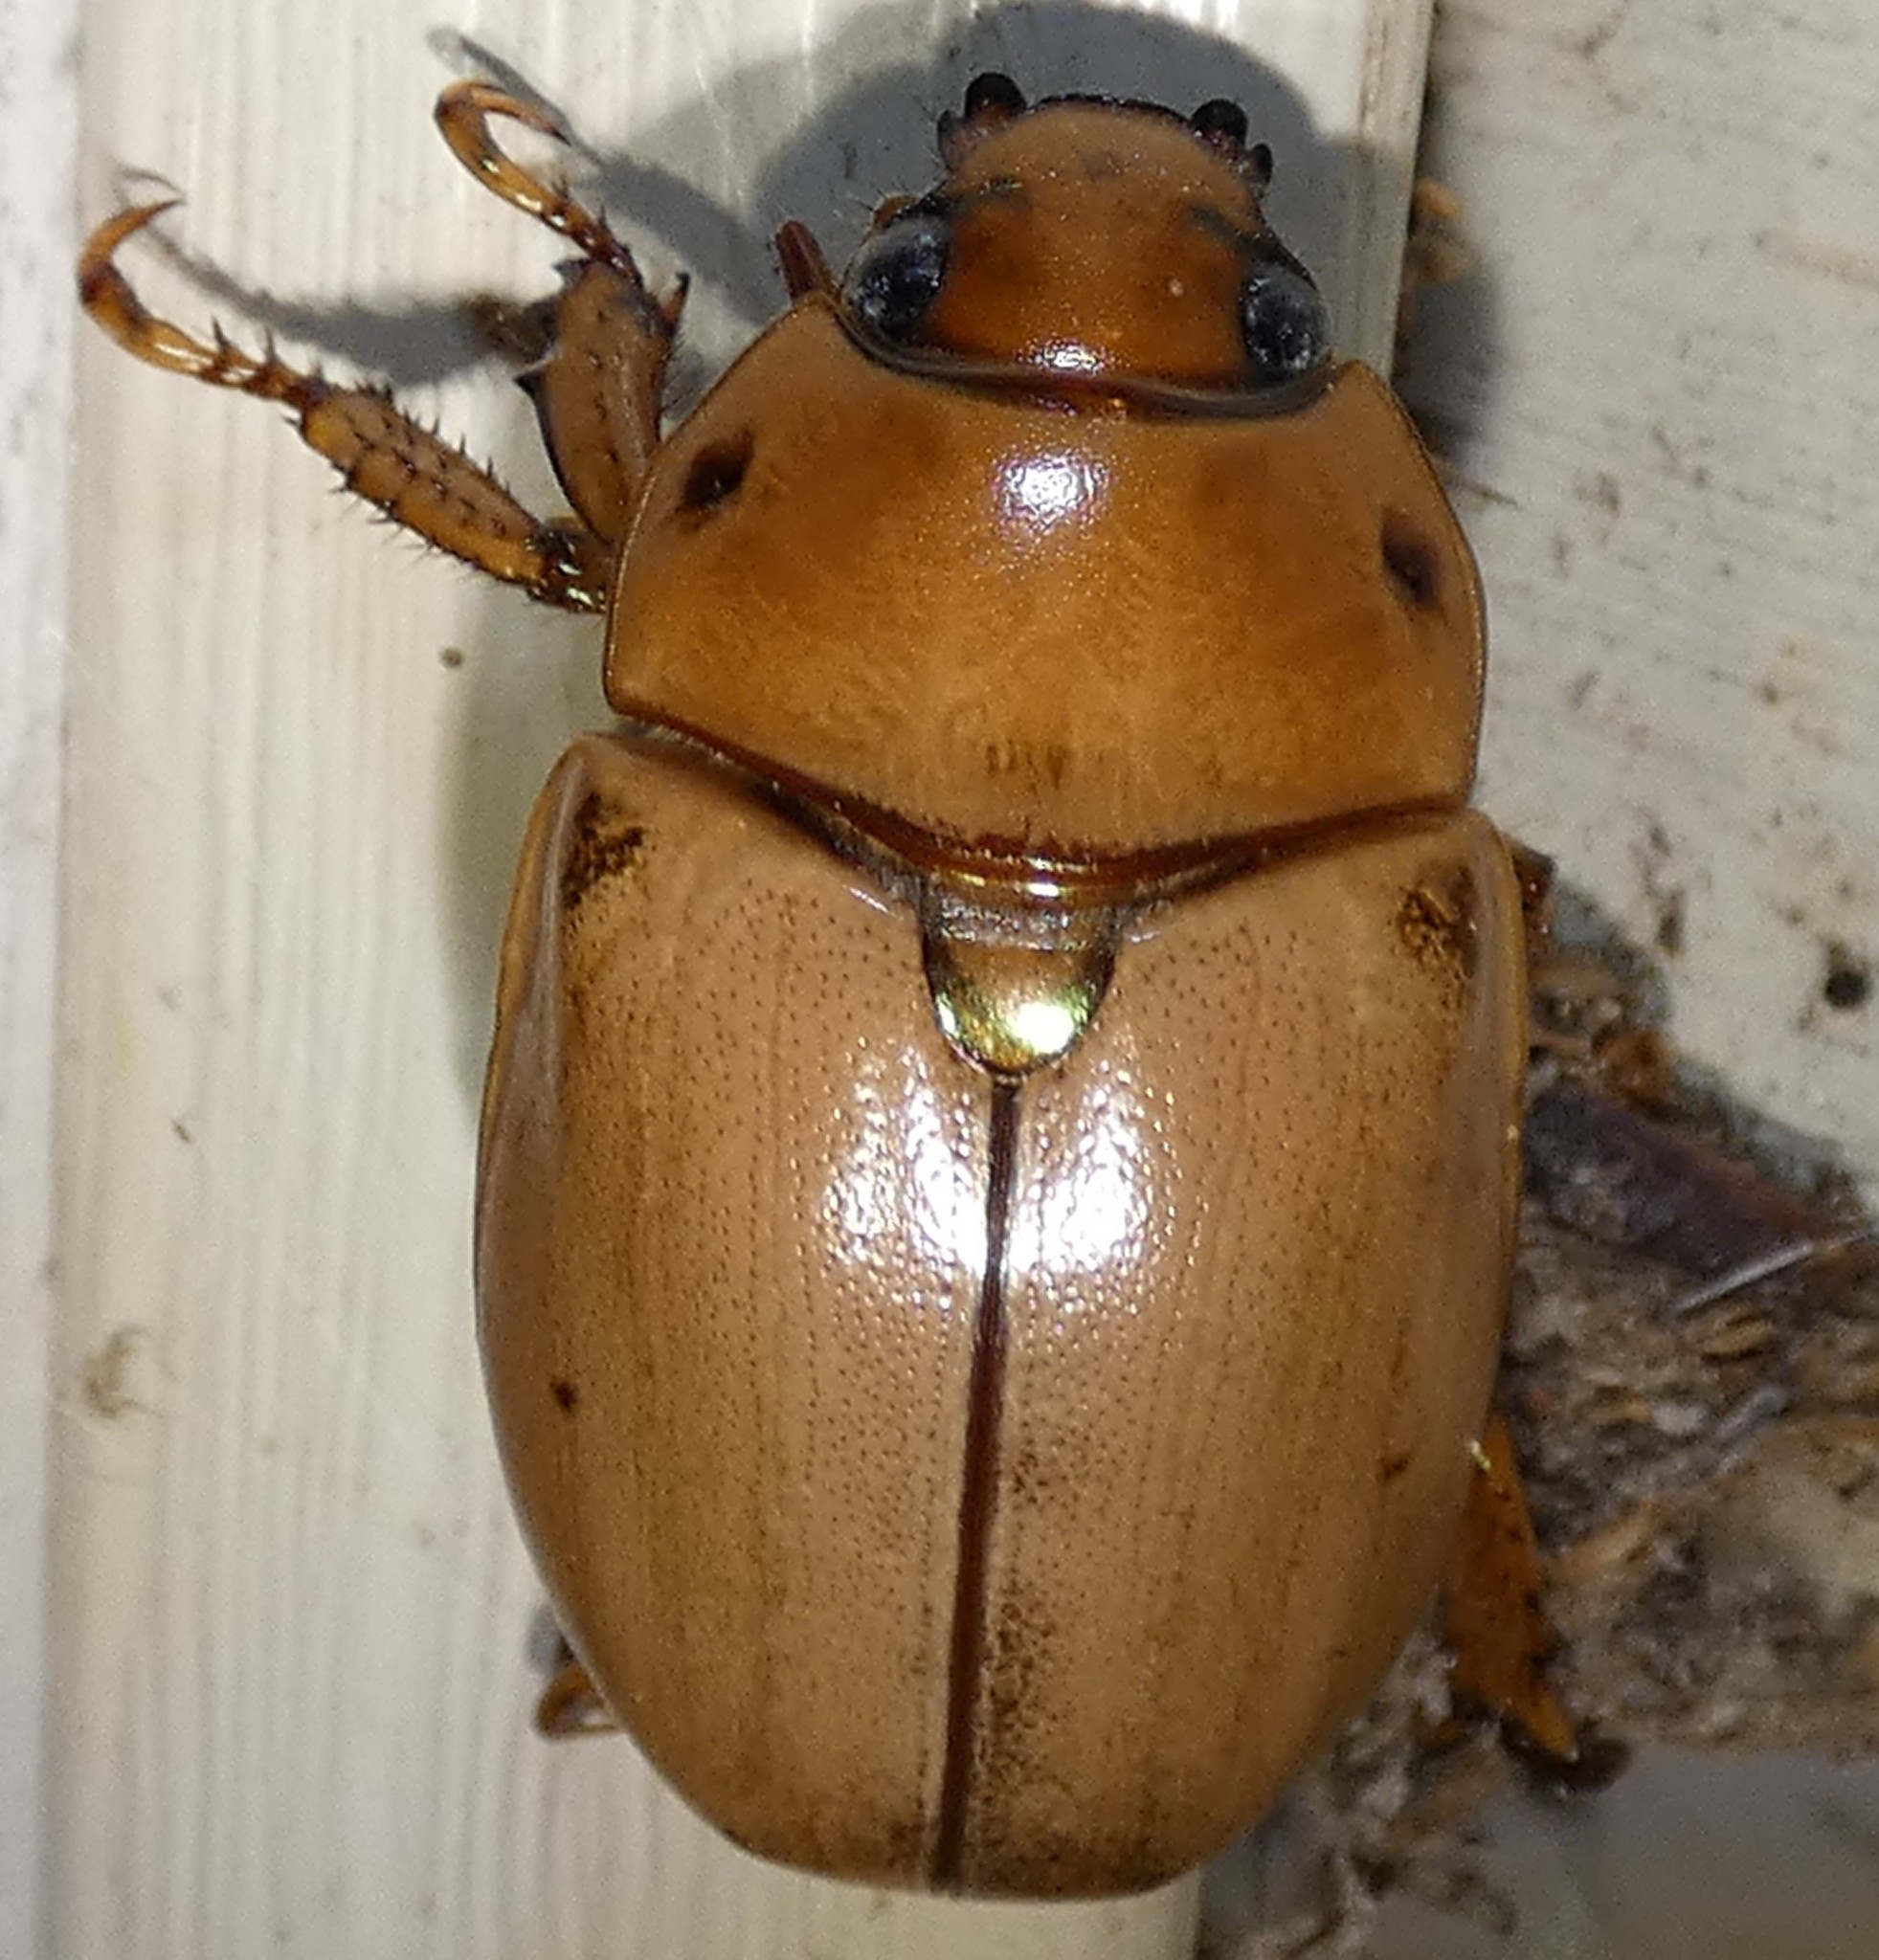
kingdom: Animalia
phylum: Arthropoda
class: Insecta
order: Coleoptera
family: Scarabaeidae
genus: Pelidnota
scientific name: Pelidnota punctata
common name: Grapevine beetle
